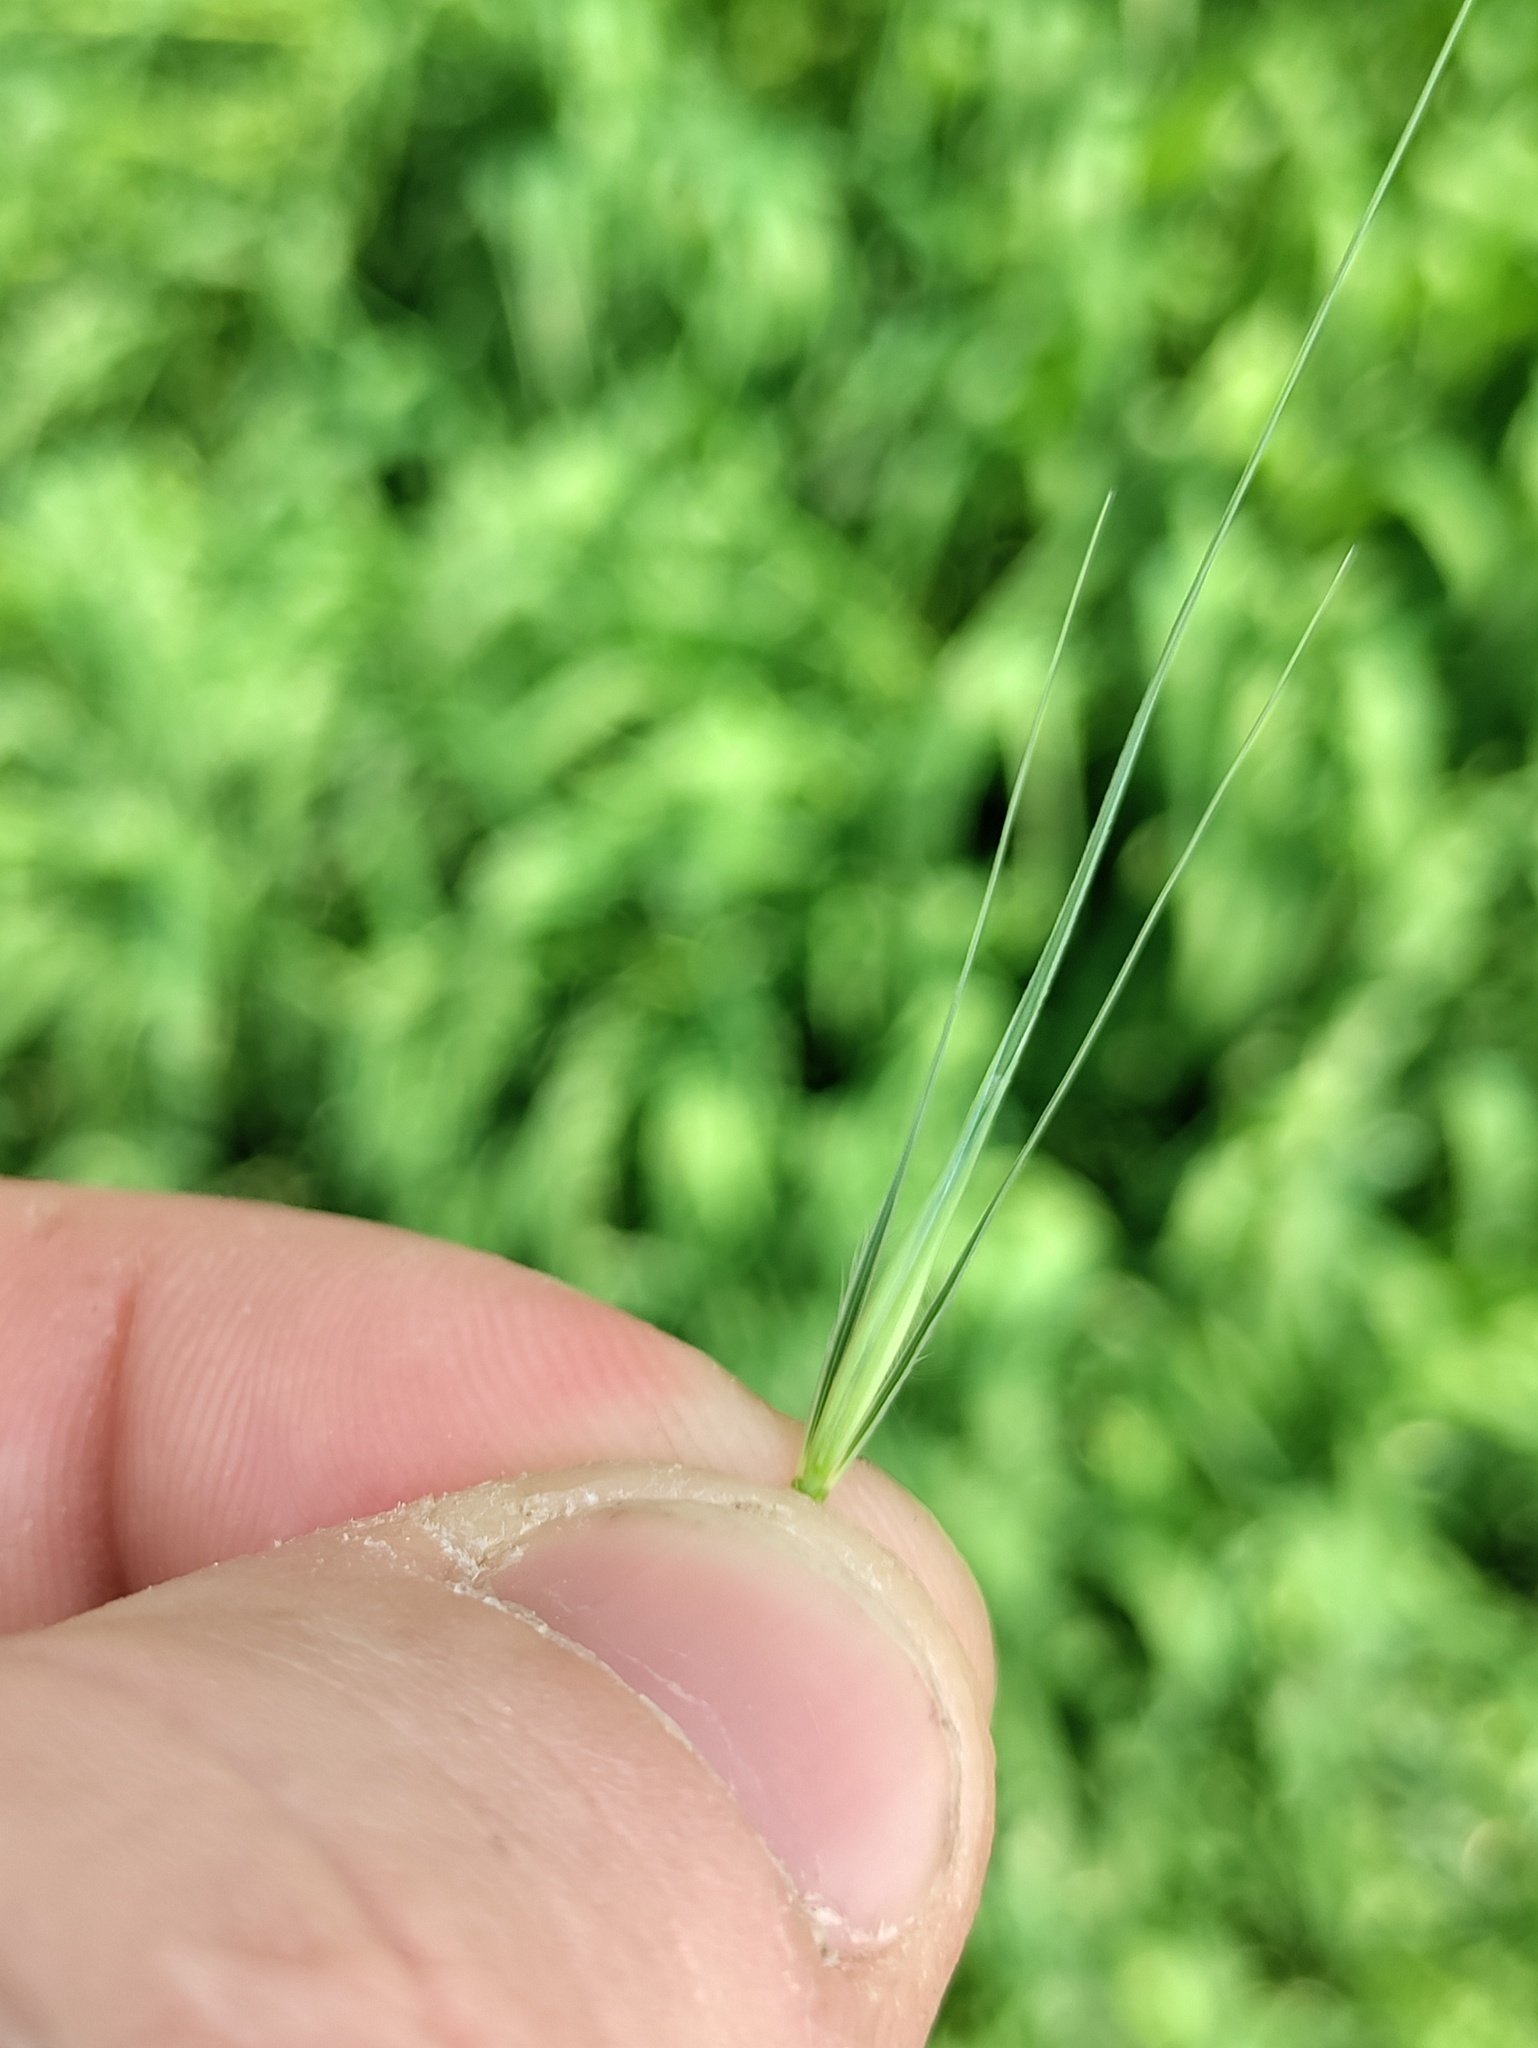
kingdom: Plantae
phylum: Tracheophyta
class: Liliopsida
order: Poales
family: Poaceae
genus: Hordeum
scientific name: Hordeum murinum
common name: Wall barley
